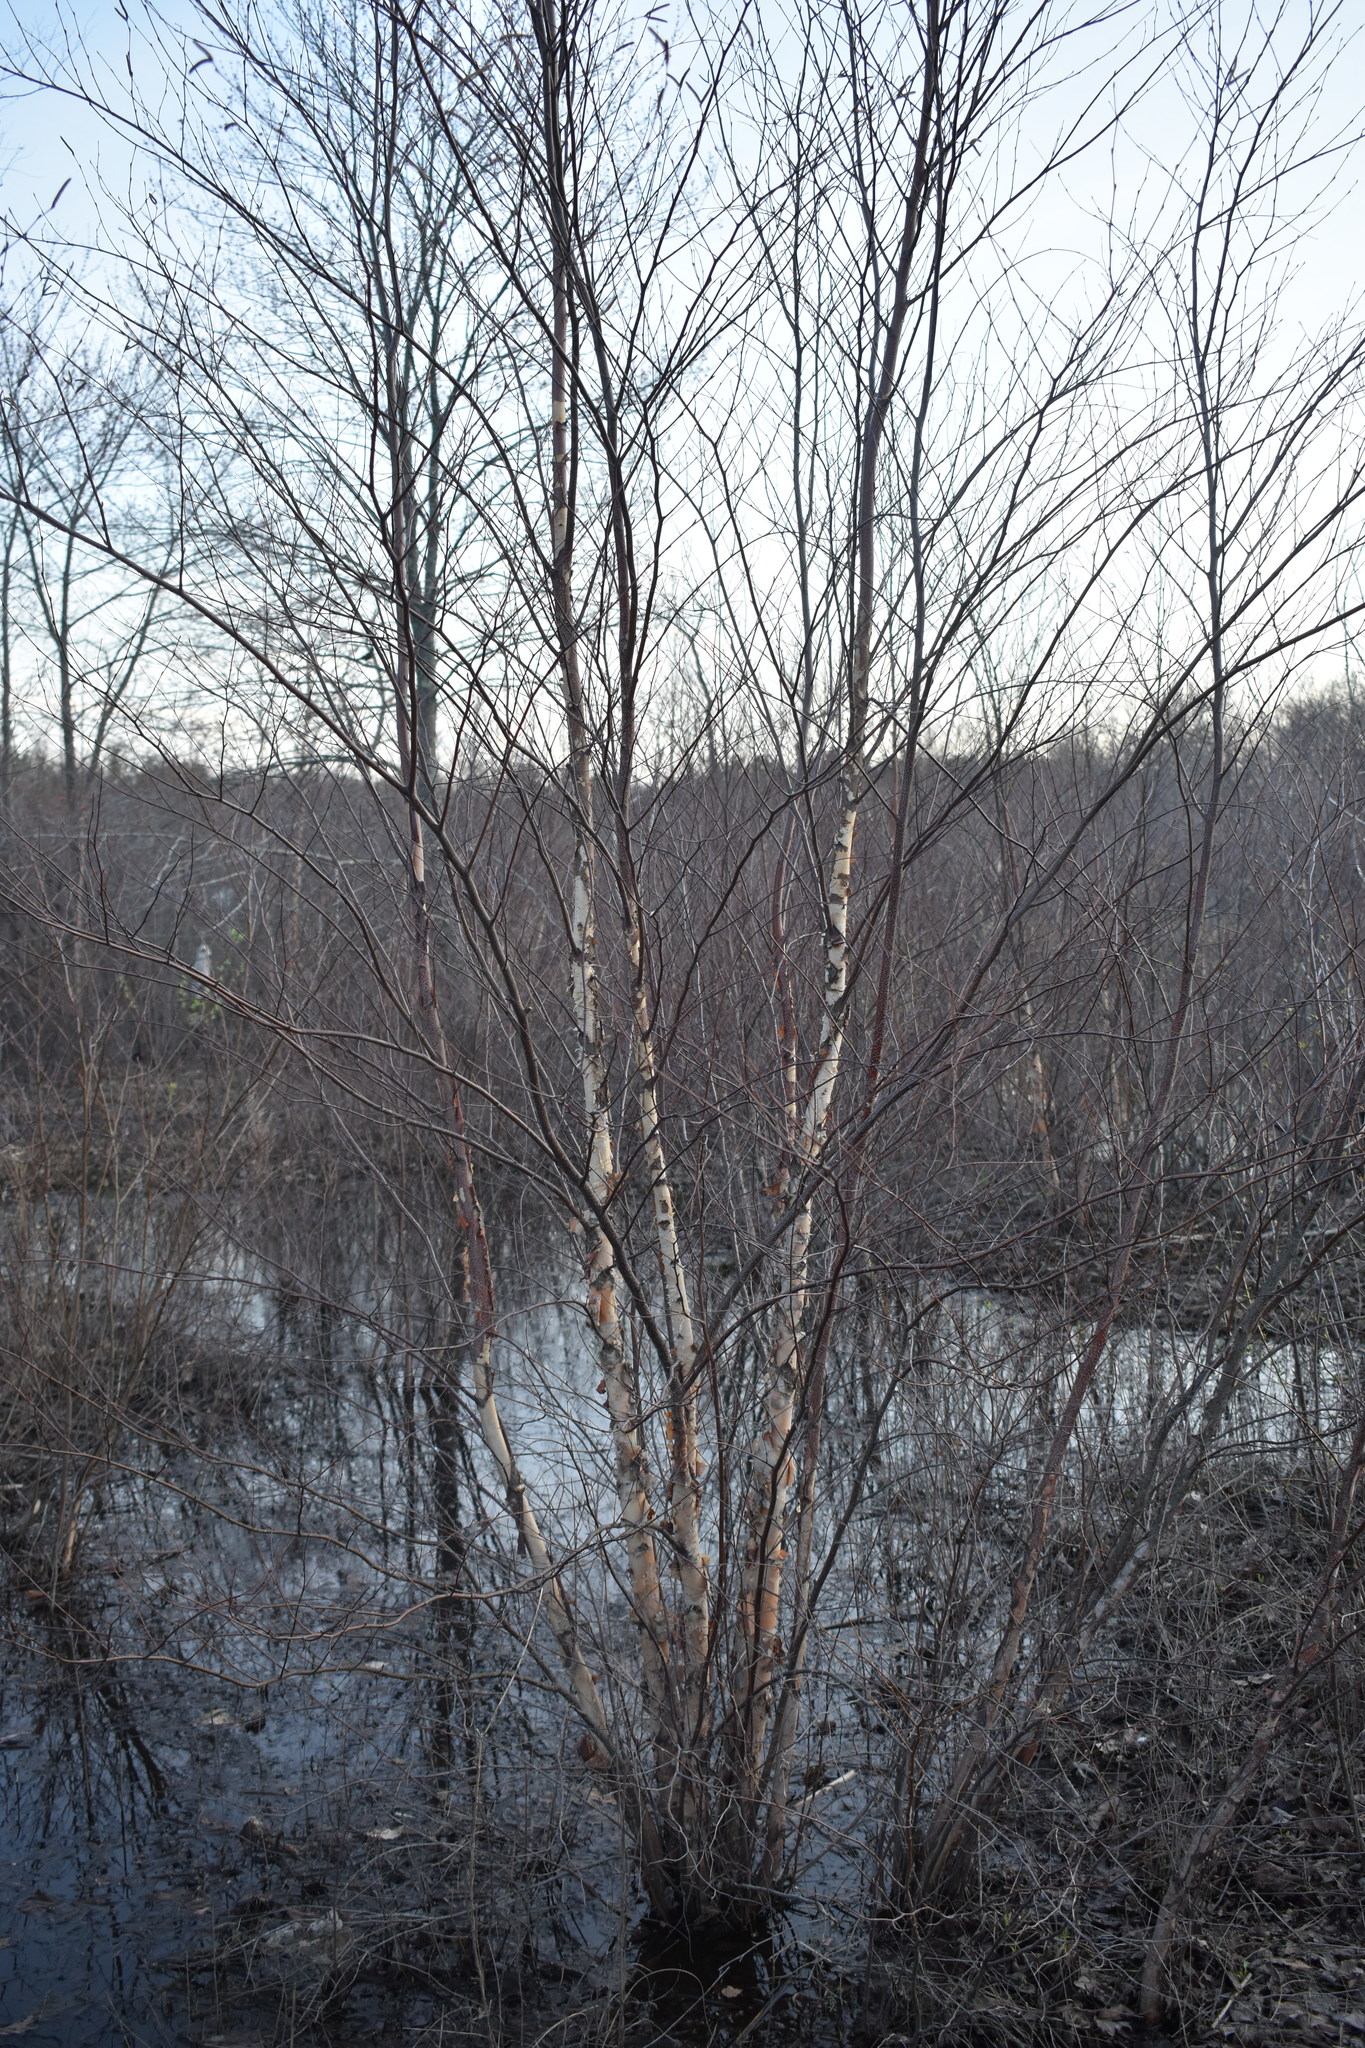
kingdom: Plantae
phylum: Tracheophyta
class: Magnoliopsida
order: Fagales
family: Betulaceae
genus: Betula
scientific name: Betula nigra
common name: Black birch
